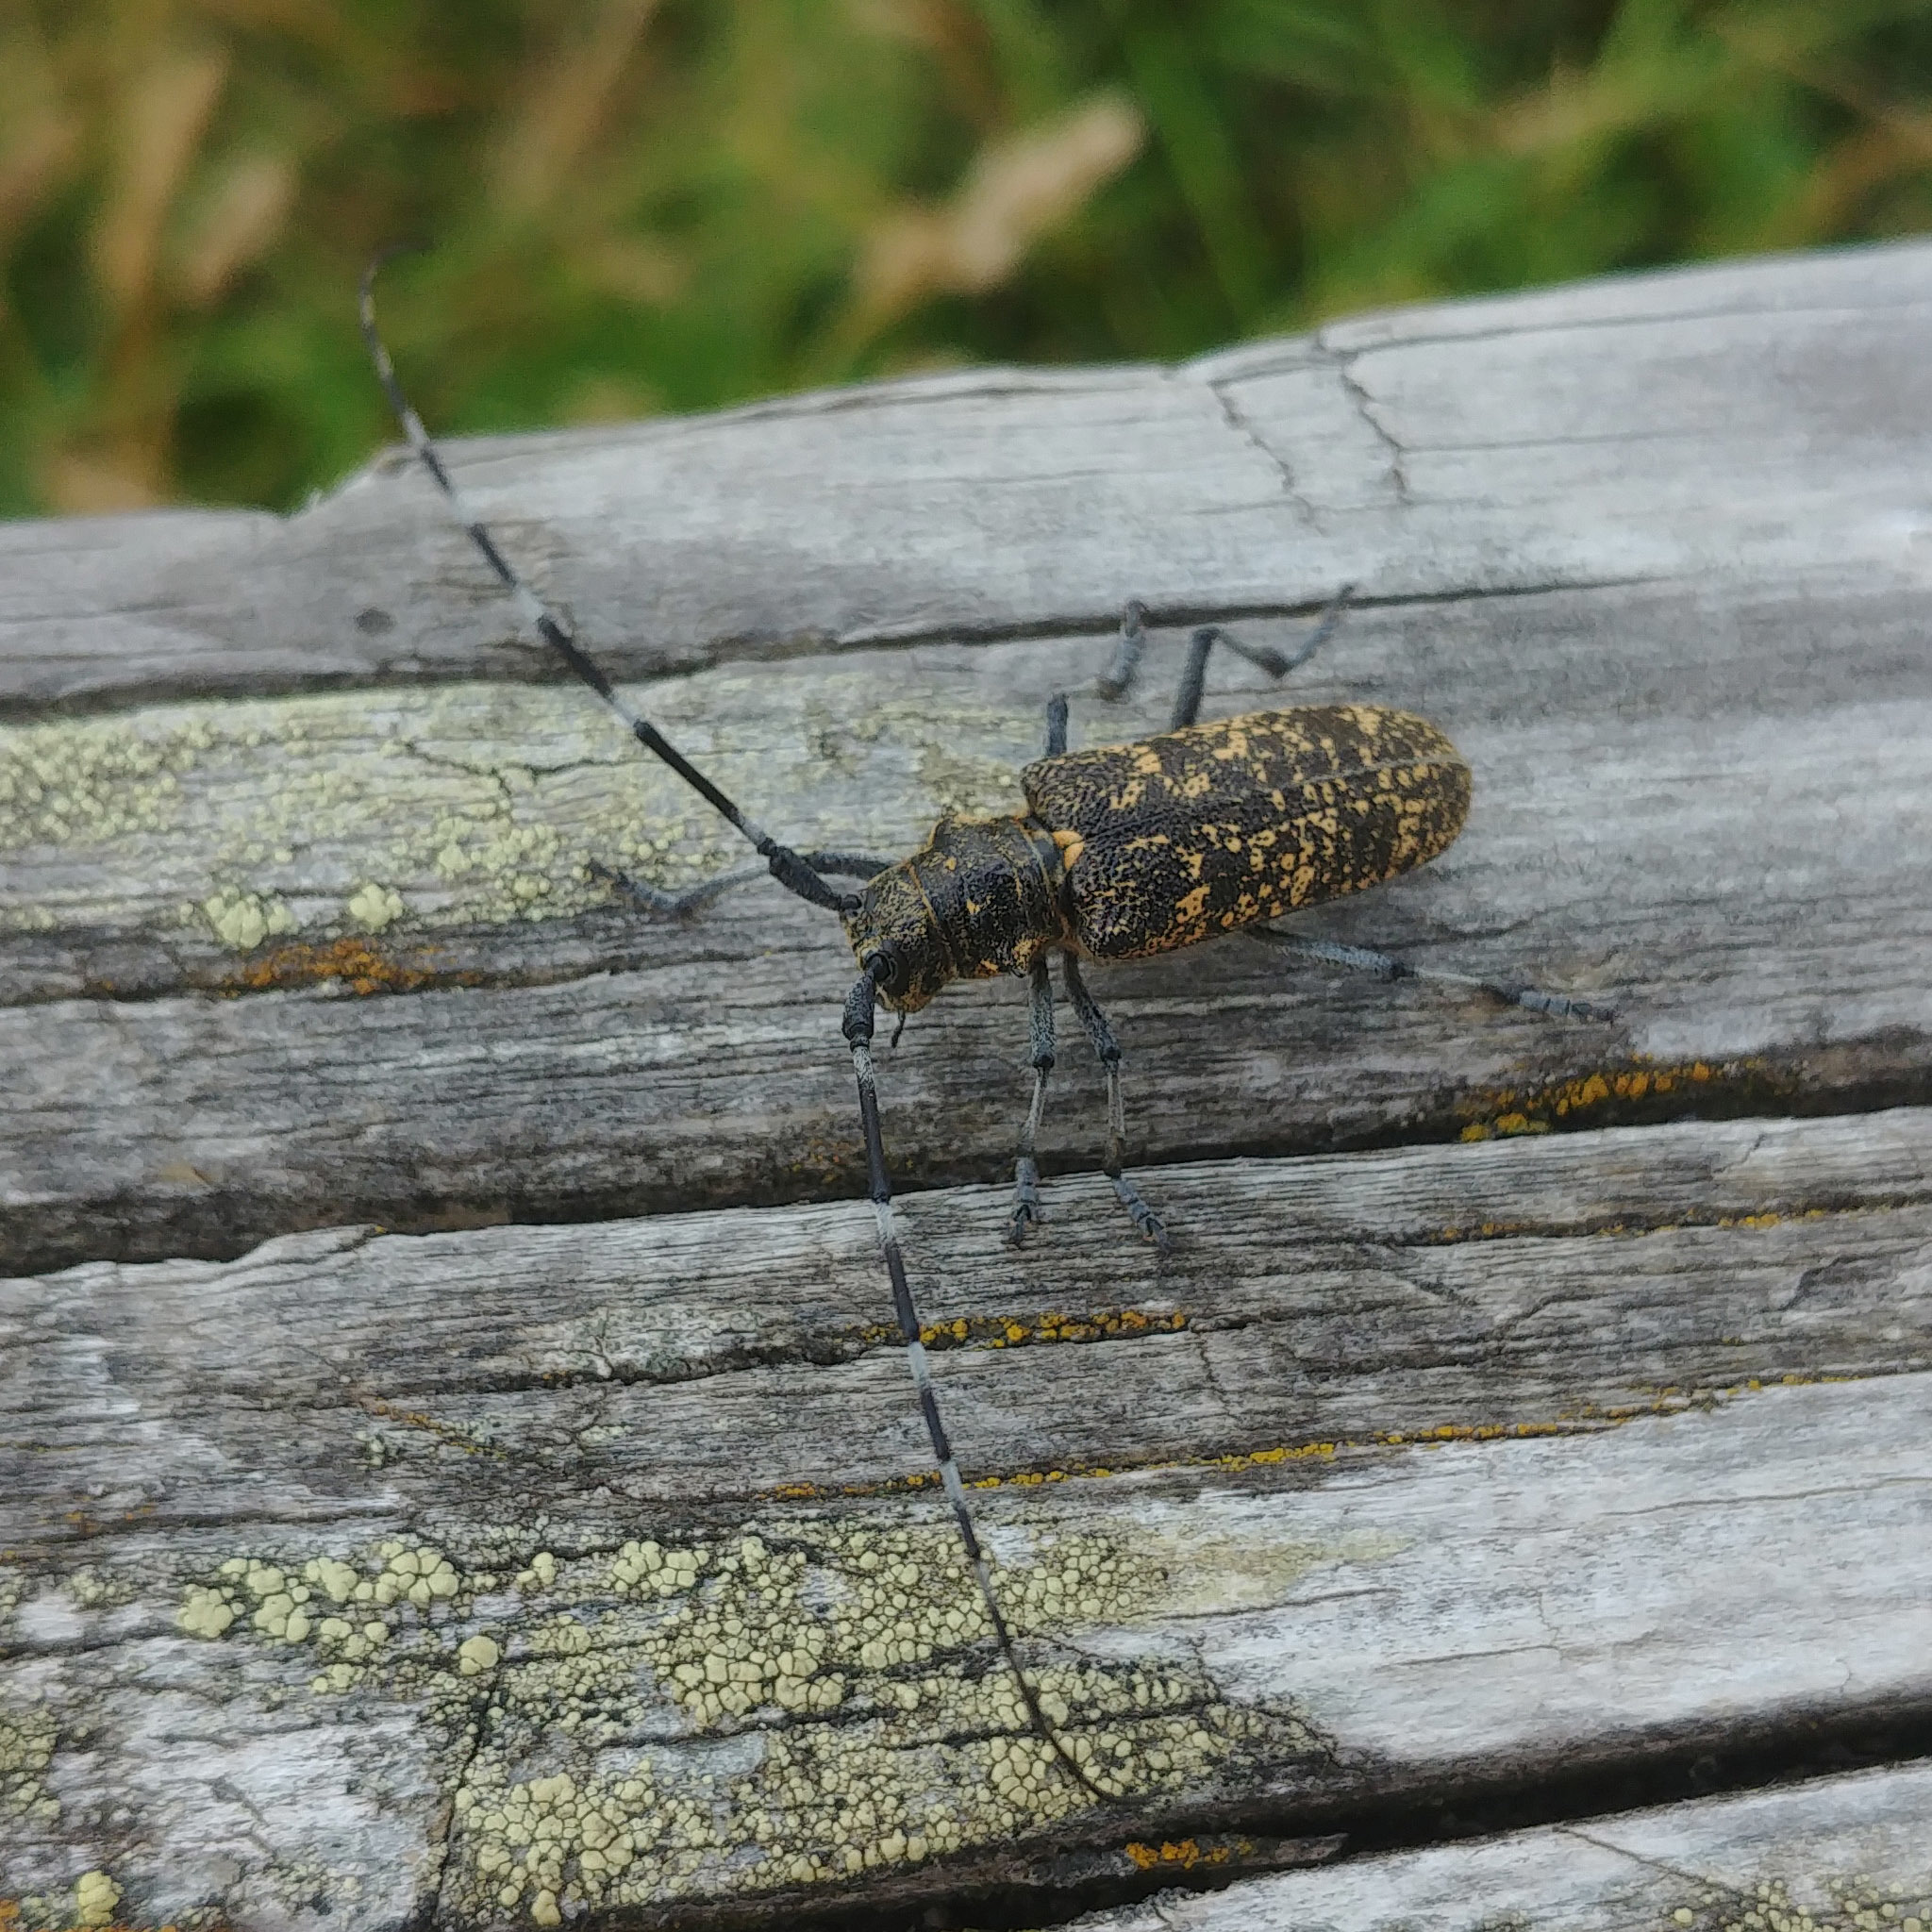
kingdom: Animalia
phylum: Arthropoda
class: Insecta
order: Coleoptera
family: Cerambycidae
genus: Monochamus
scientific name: Monochamus sutor
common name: Pine sawyer
